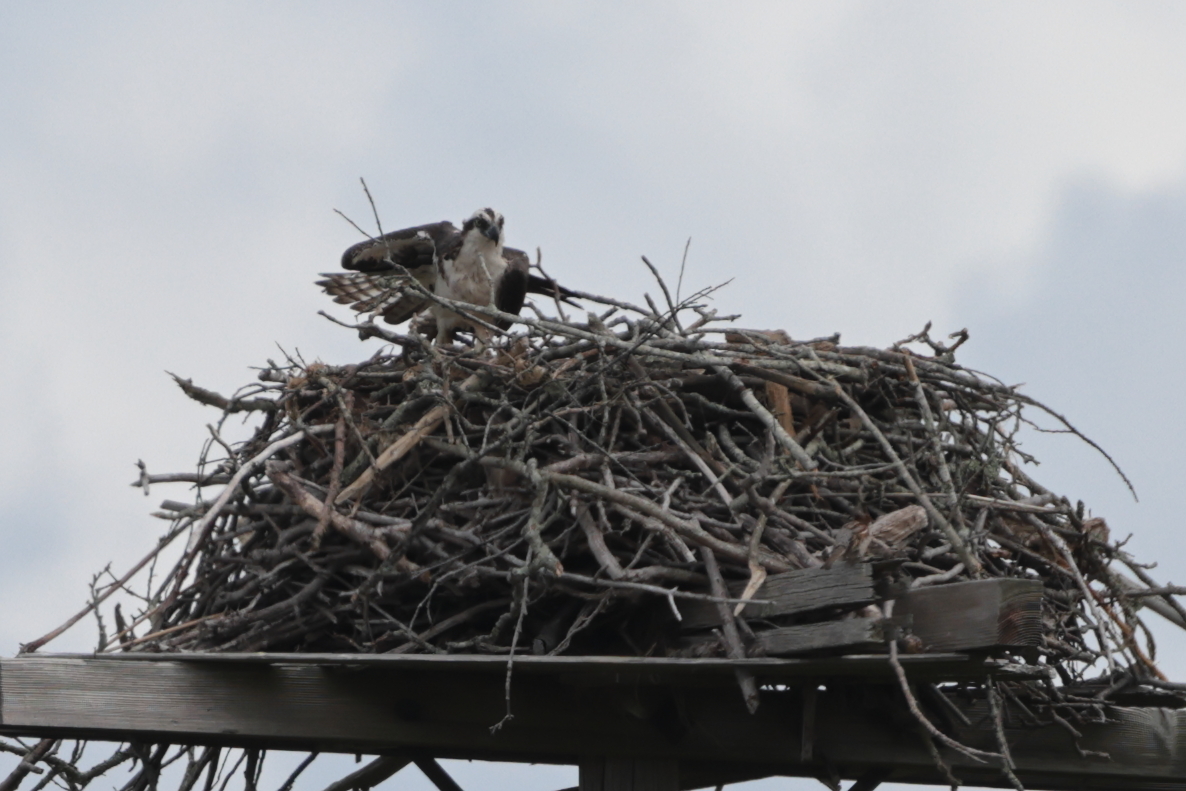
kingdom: Animalia
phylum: Chordata
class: Aves
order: Accipitriformes
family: Pandionidae
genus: Pandion
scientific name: Pandion haliaetus
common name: Osprey
